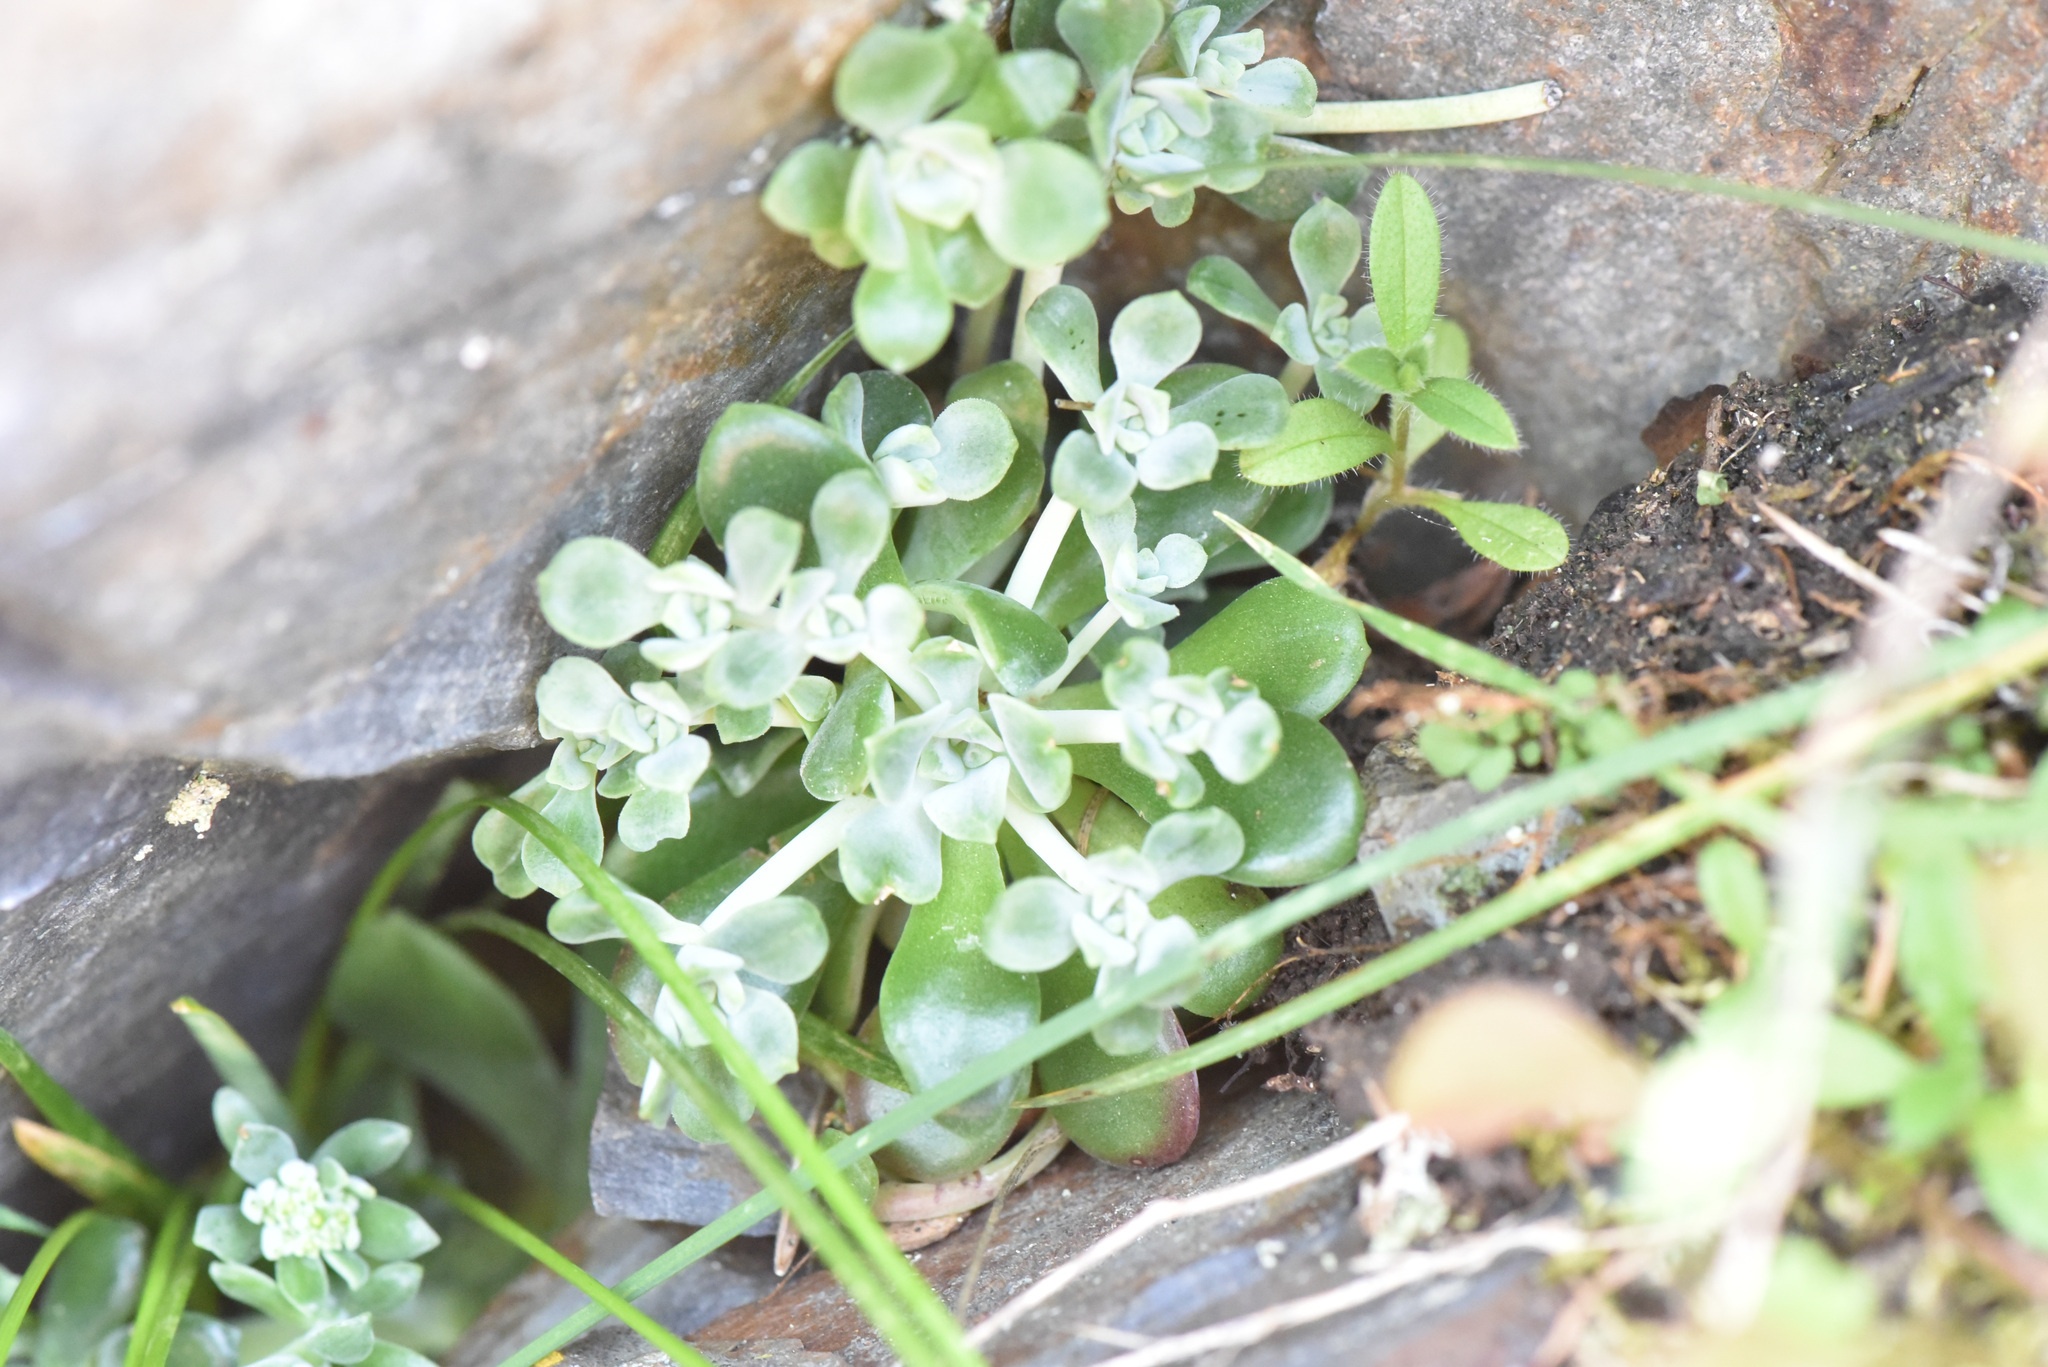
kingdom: Plantae
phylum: Tracheophyta
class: Magnoliopsida
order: Saxifragales
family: Crassulaceae
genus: Sedum
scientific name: Sedum spathulifolium
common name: Colorado stonecrop
